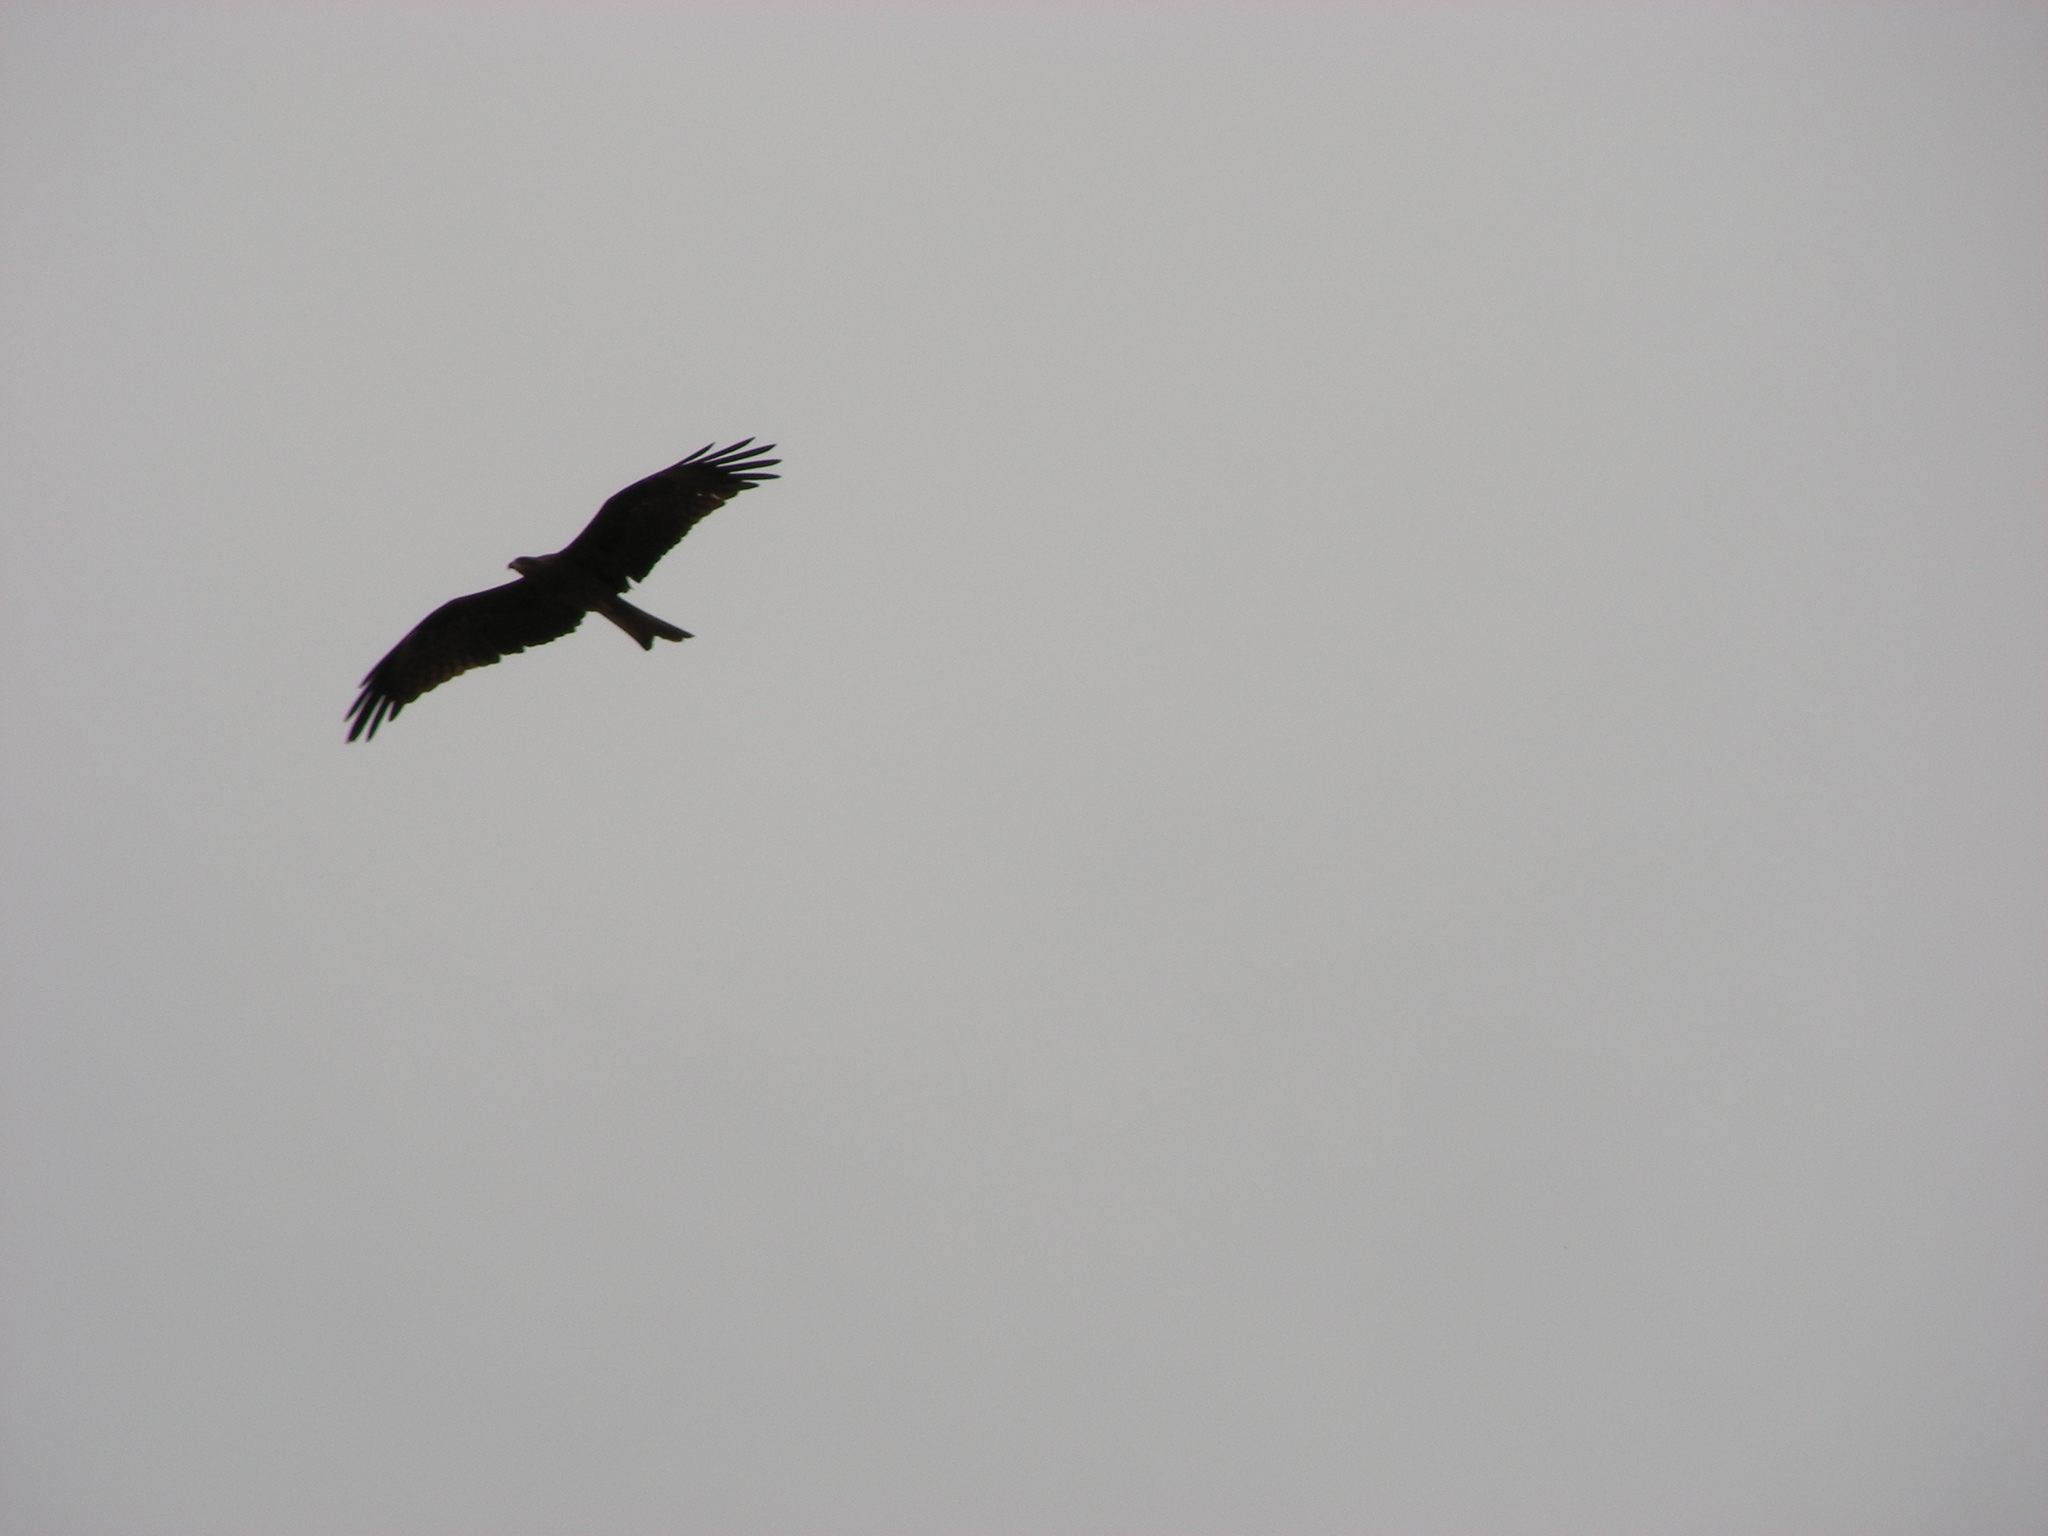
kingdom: Animalia
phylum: Chordata
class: Aves
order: Accipitriformes
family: Accipitridae
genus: Milvus
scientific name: Milvus migrans
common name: Black kite
